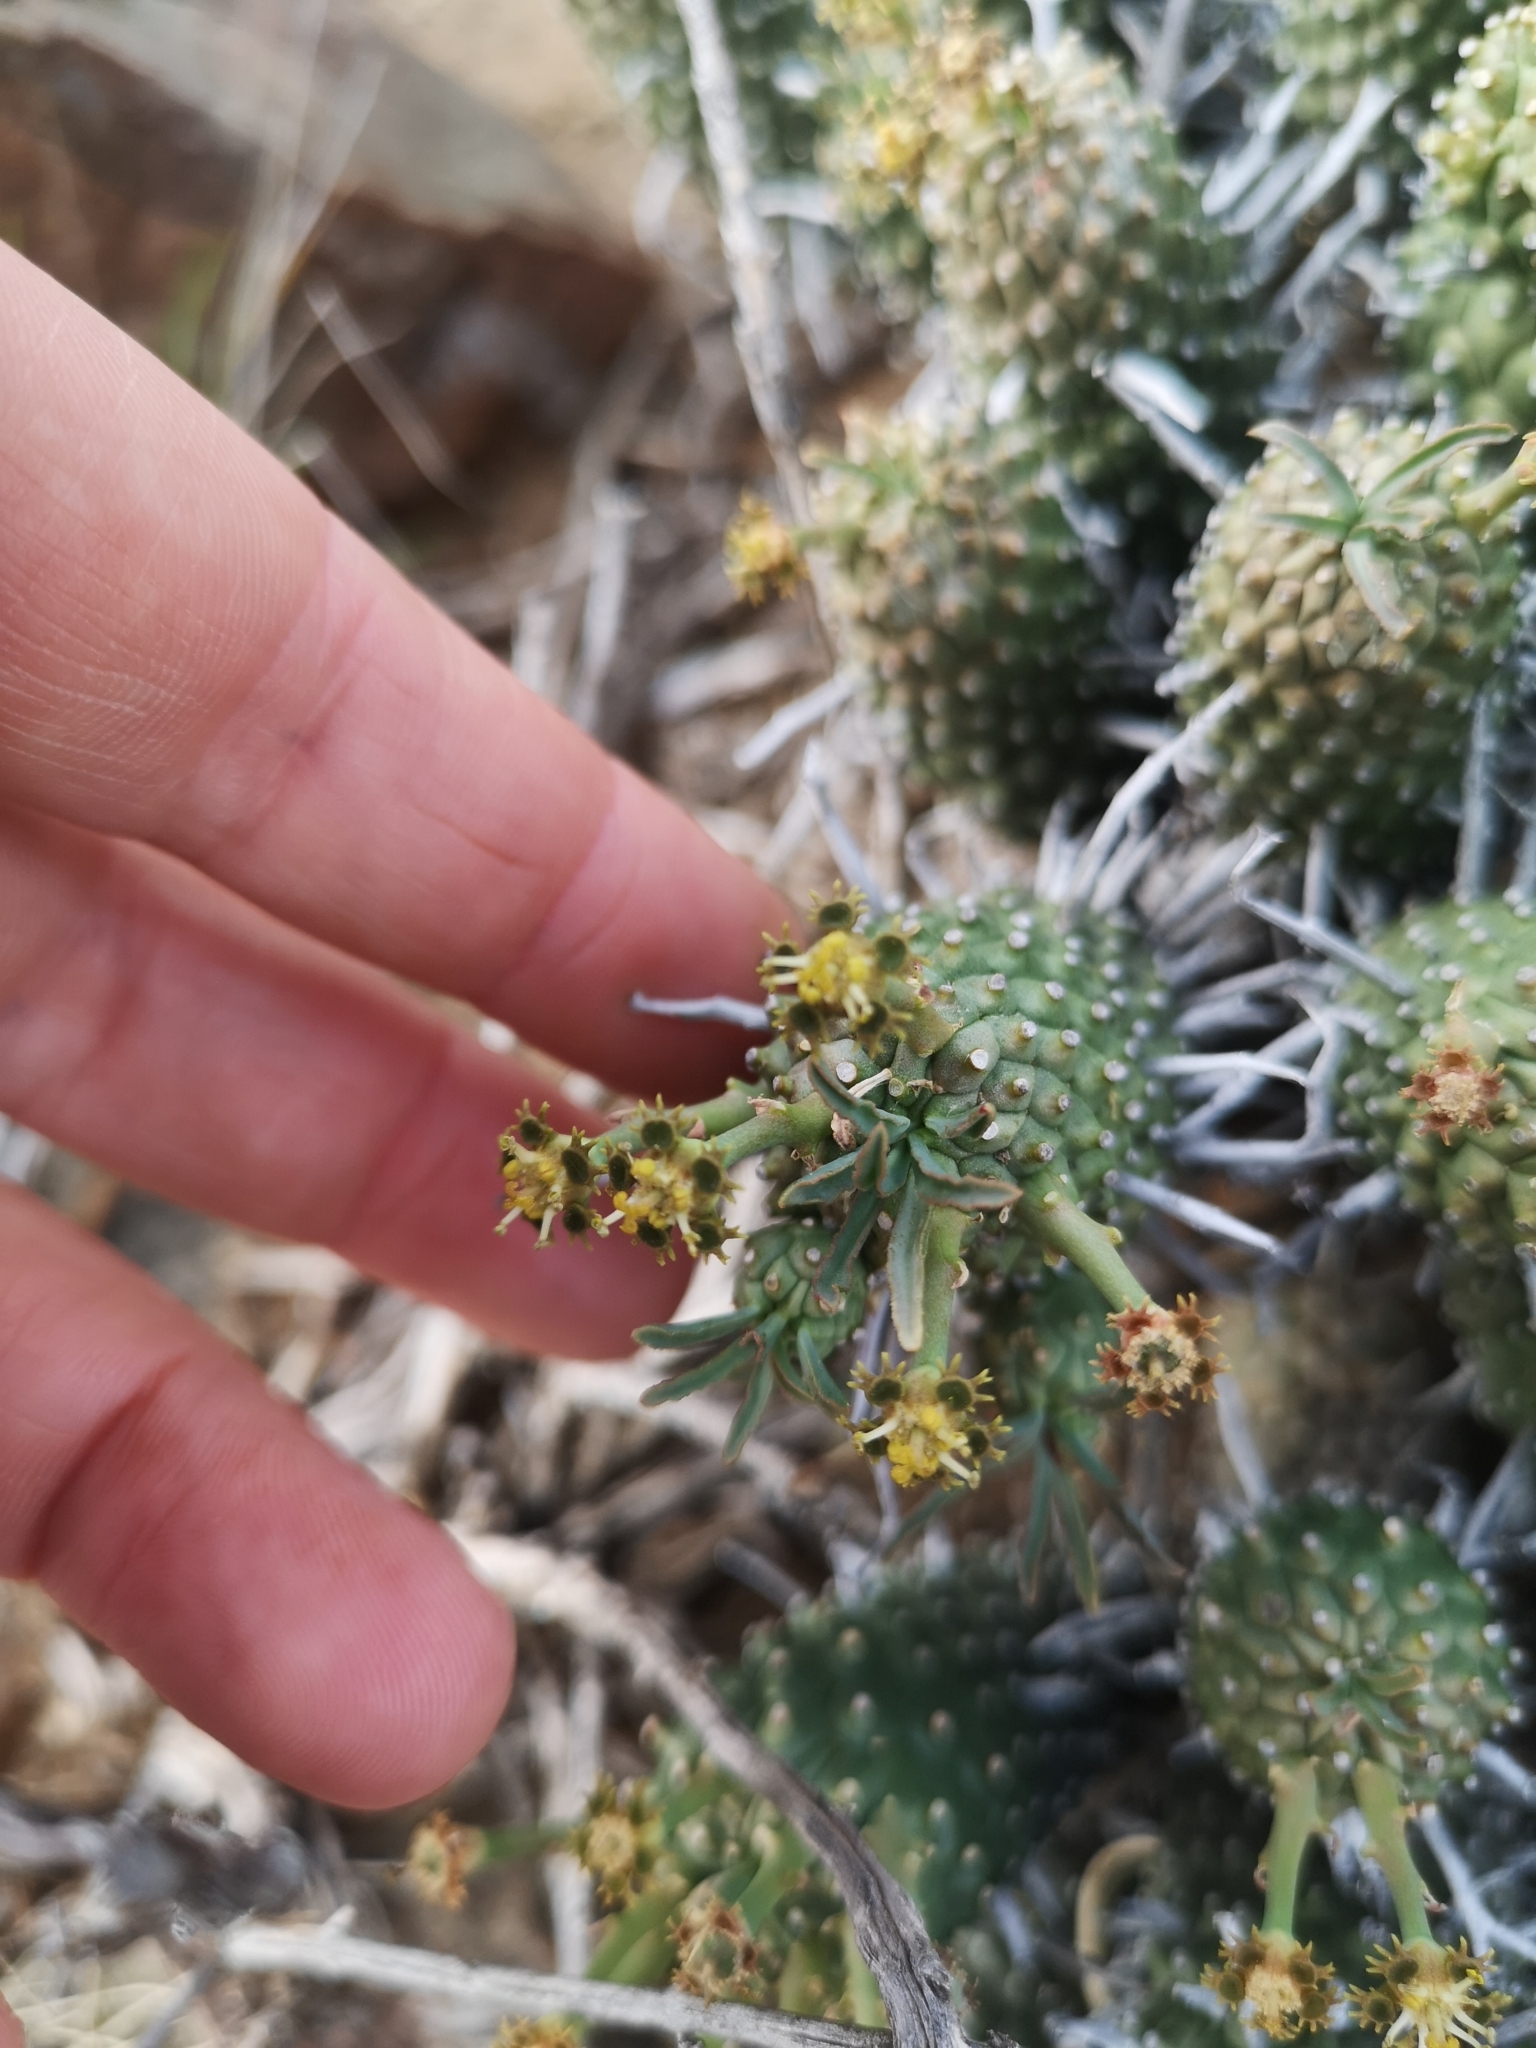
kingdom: Plantae
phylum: Tracheophyta
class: Magnoliopsida
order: Malpighiales
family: Euphorbiaceae
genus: Euphorbia
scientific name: Euphorbia braunsii
